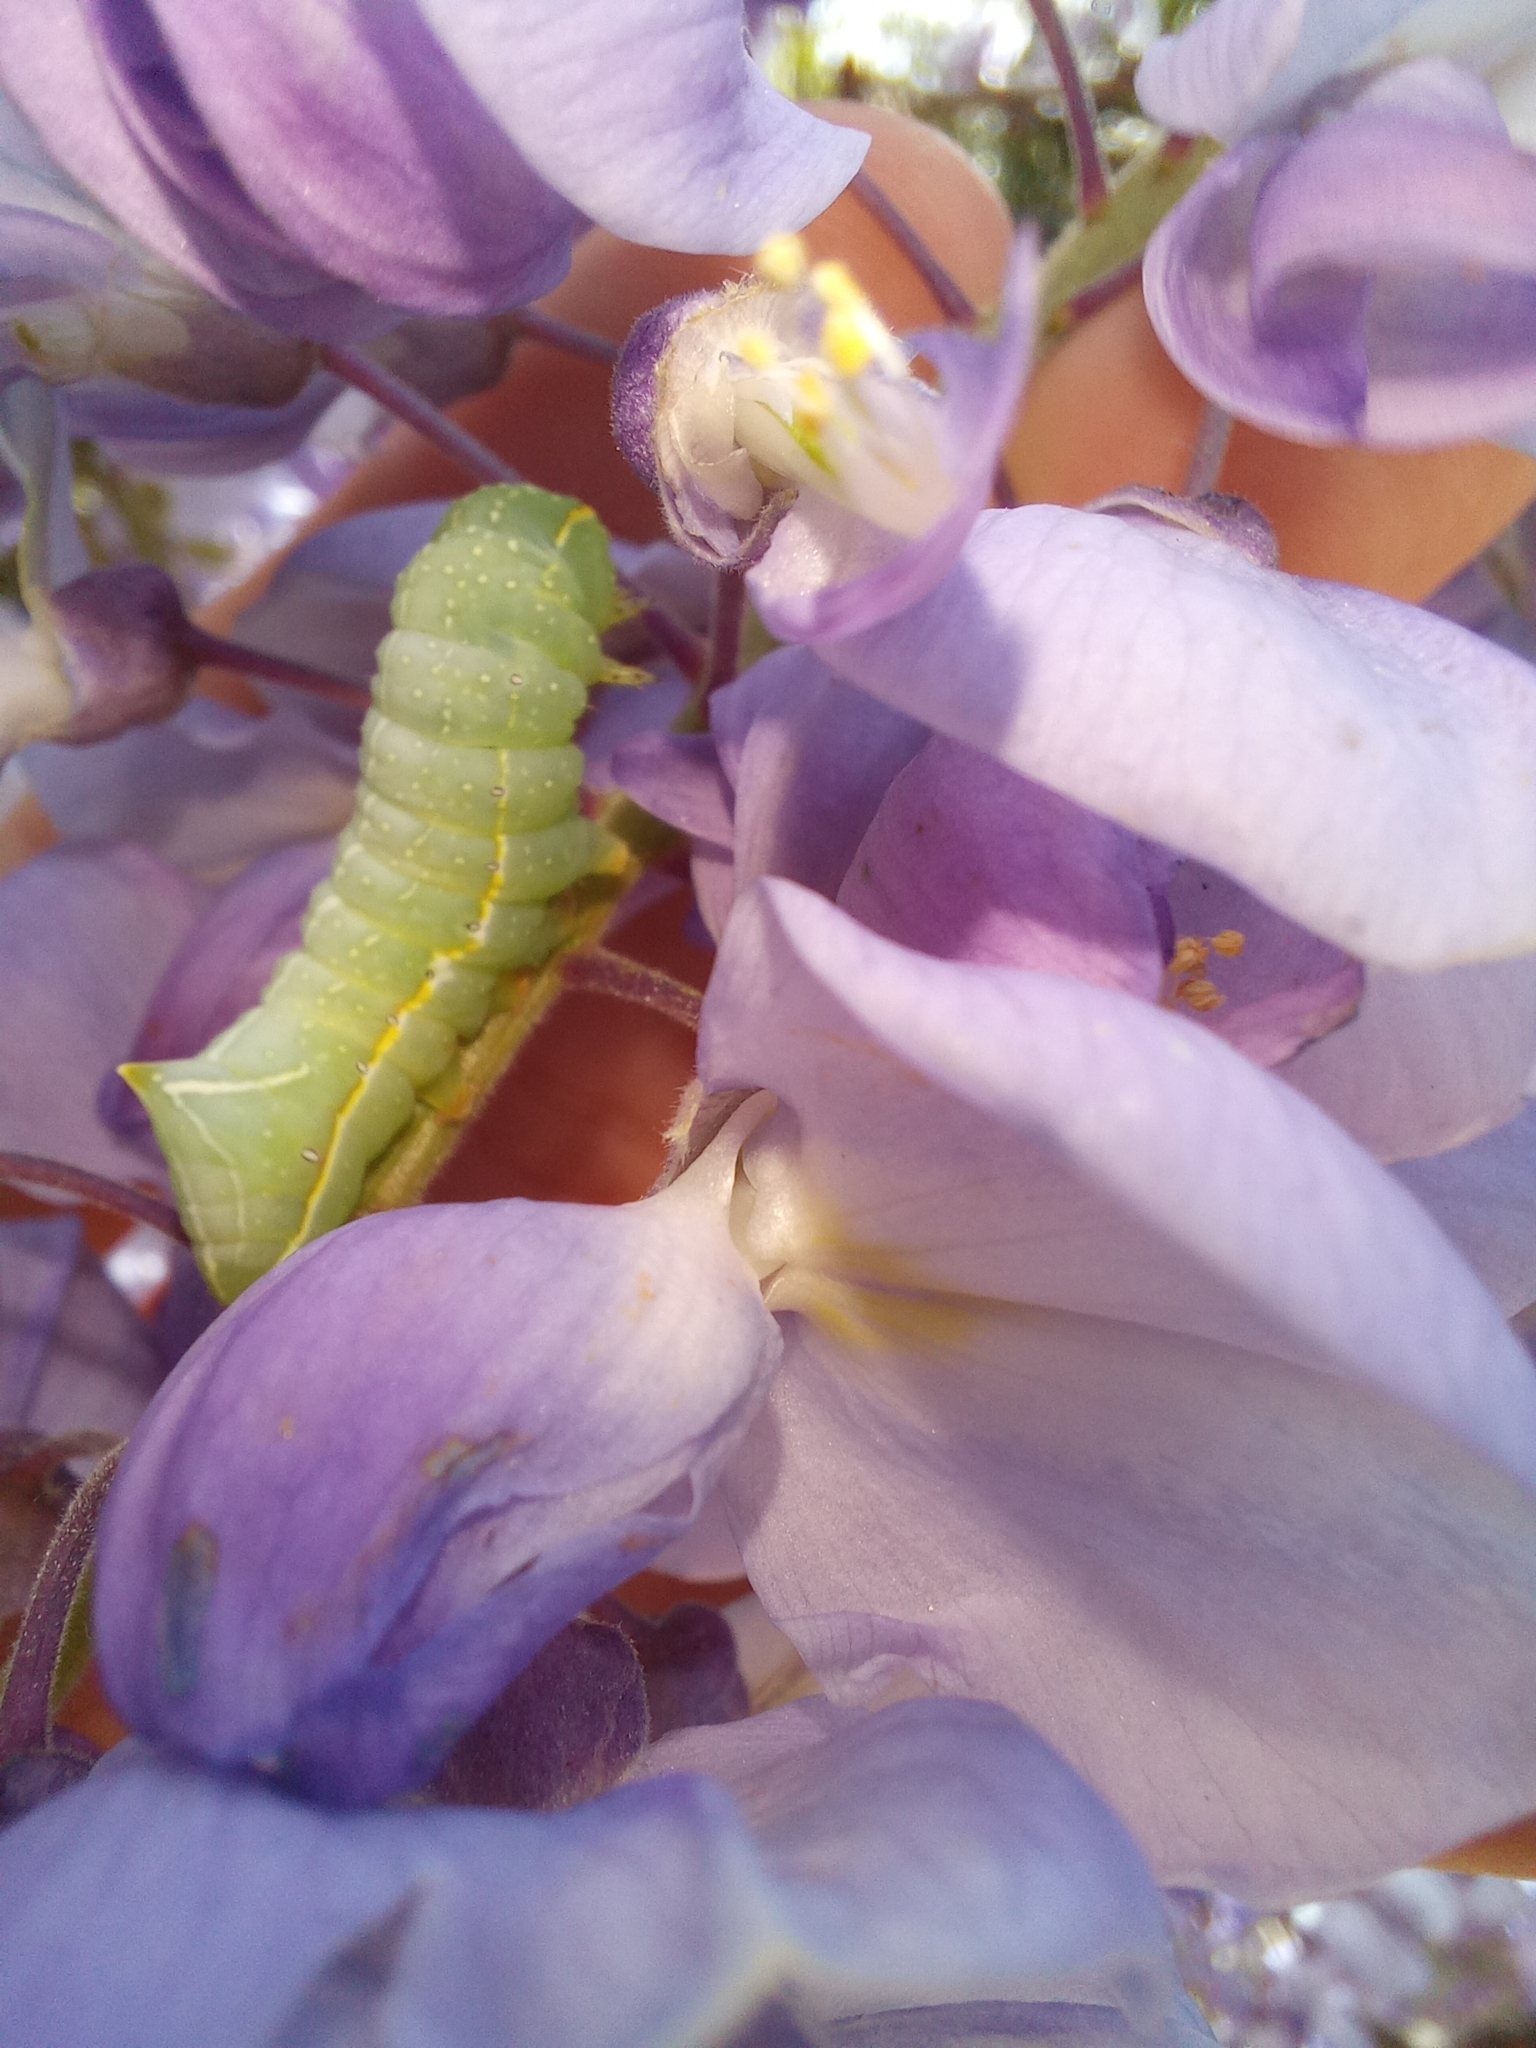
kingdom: Animalia
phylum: Arthropoda
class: Insecta
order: Lepidoptera
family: Noctuidae
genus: Amphipyra
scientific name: Amphipyra pyramidea
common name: Copper underwing
